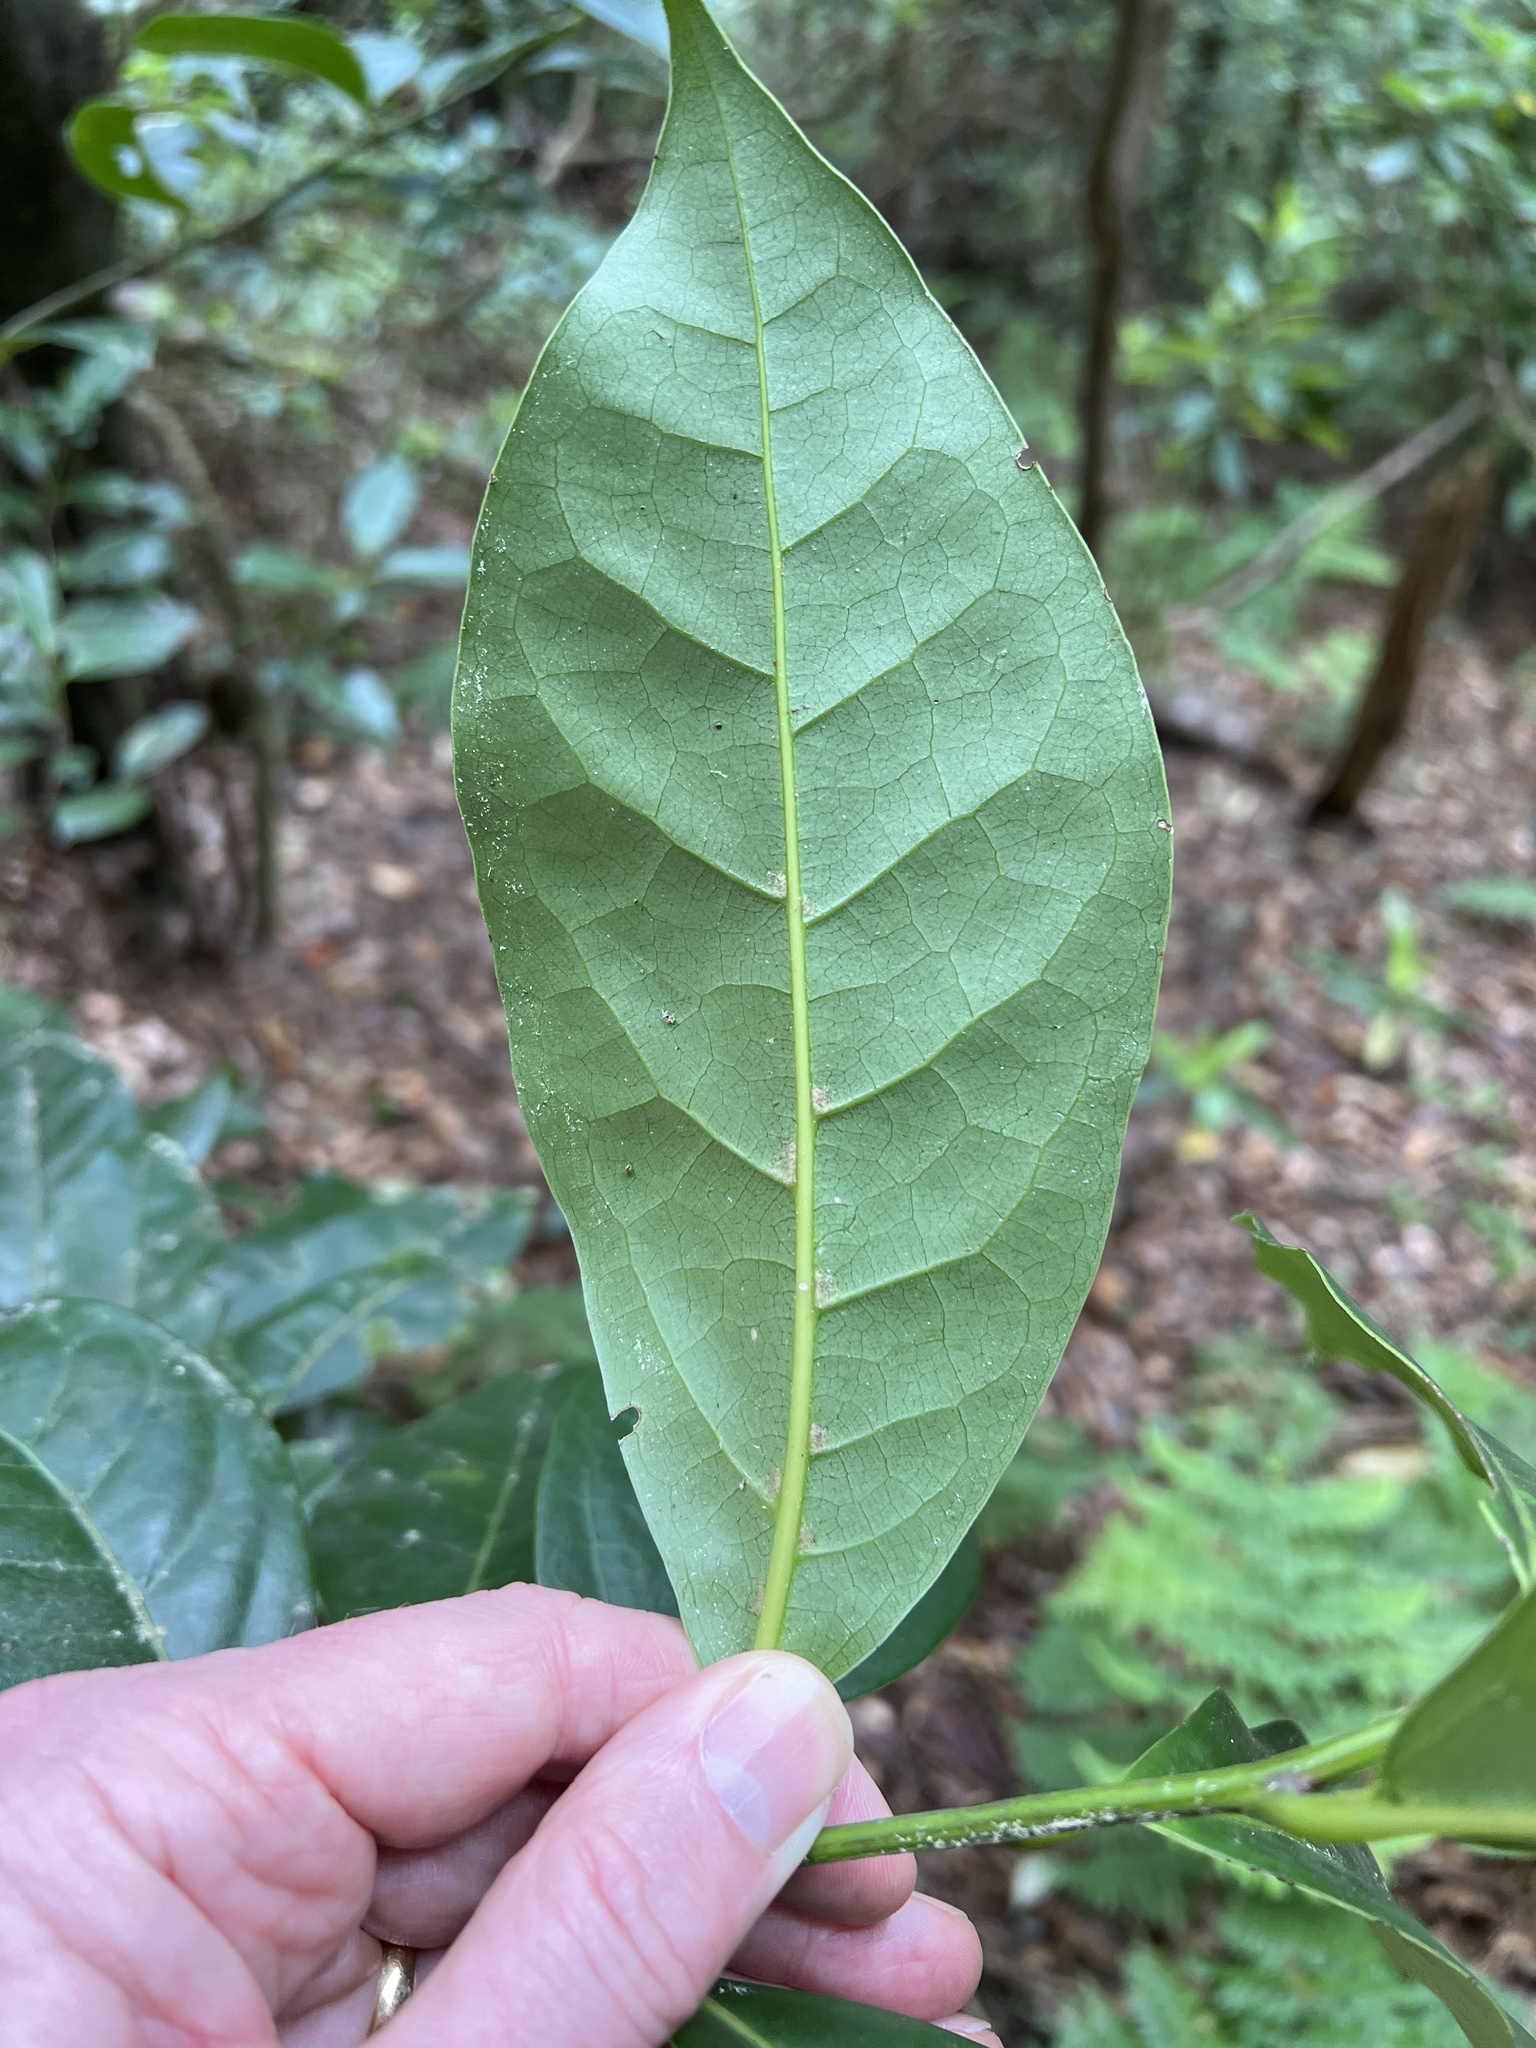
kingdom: Plantae
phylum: Tracheophyta
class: Magnoliopsida
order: Laurales
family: Lauraceae
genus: Laurus
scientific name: Laurus novocanariensis
